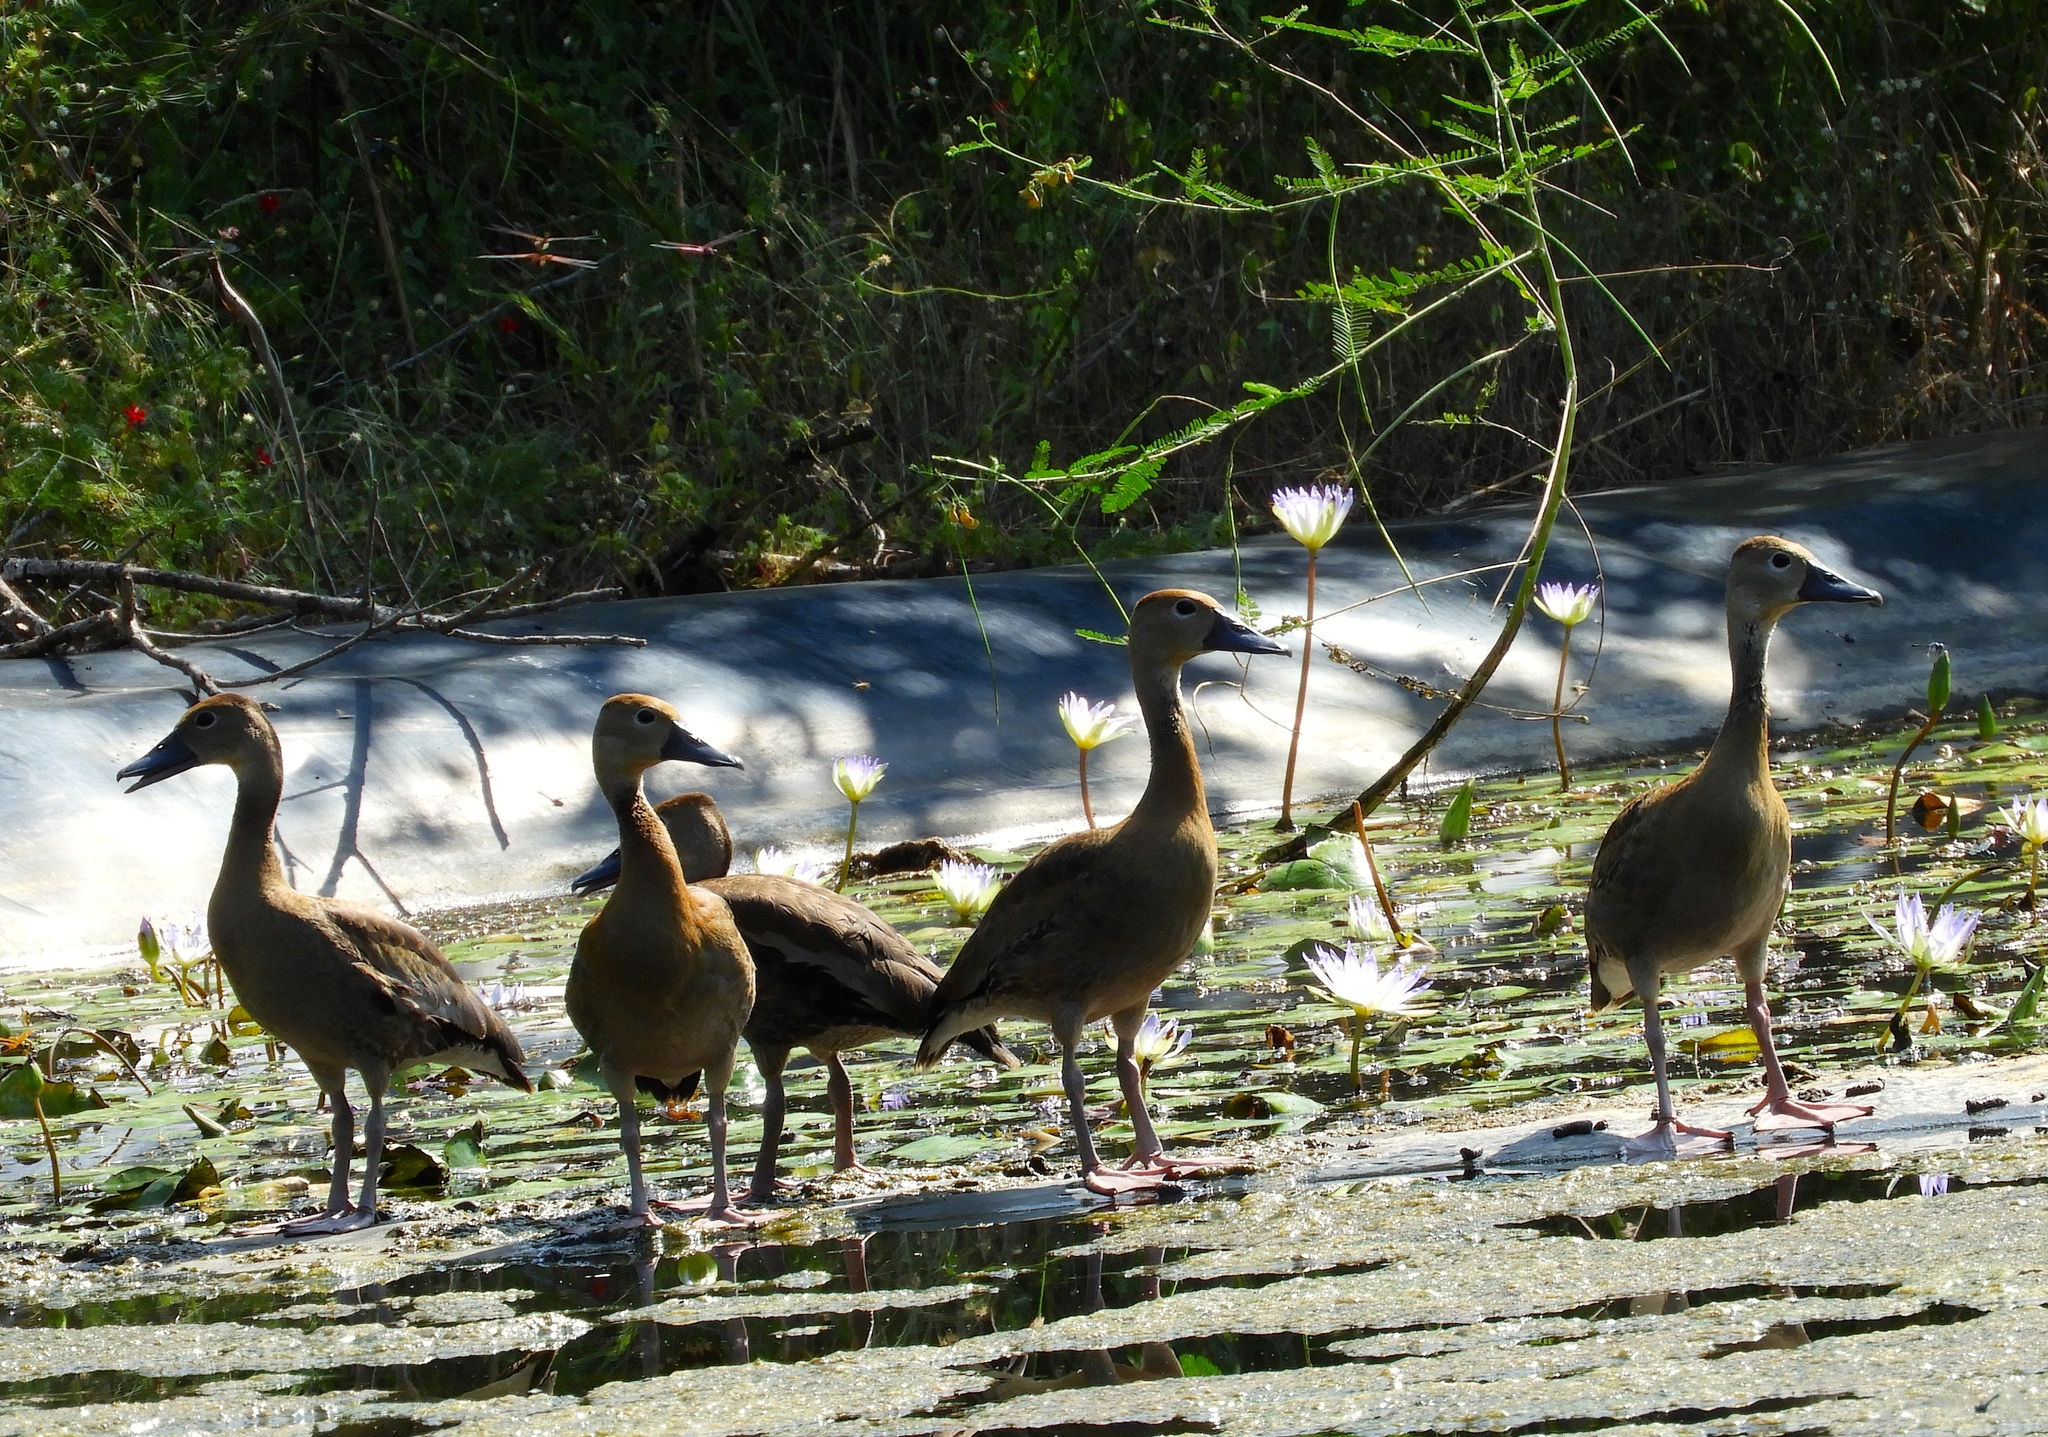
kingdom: Animalia
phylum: Chordata
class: Aves
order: Anseriformes
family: Anatidae
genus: Dendrocygna
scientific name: Dendrocygna autumnalis
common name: Black-bellied whistling duck
